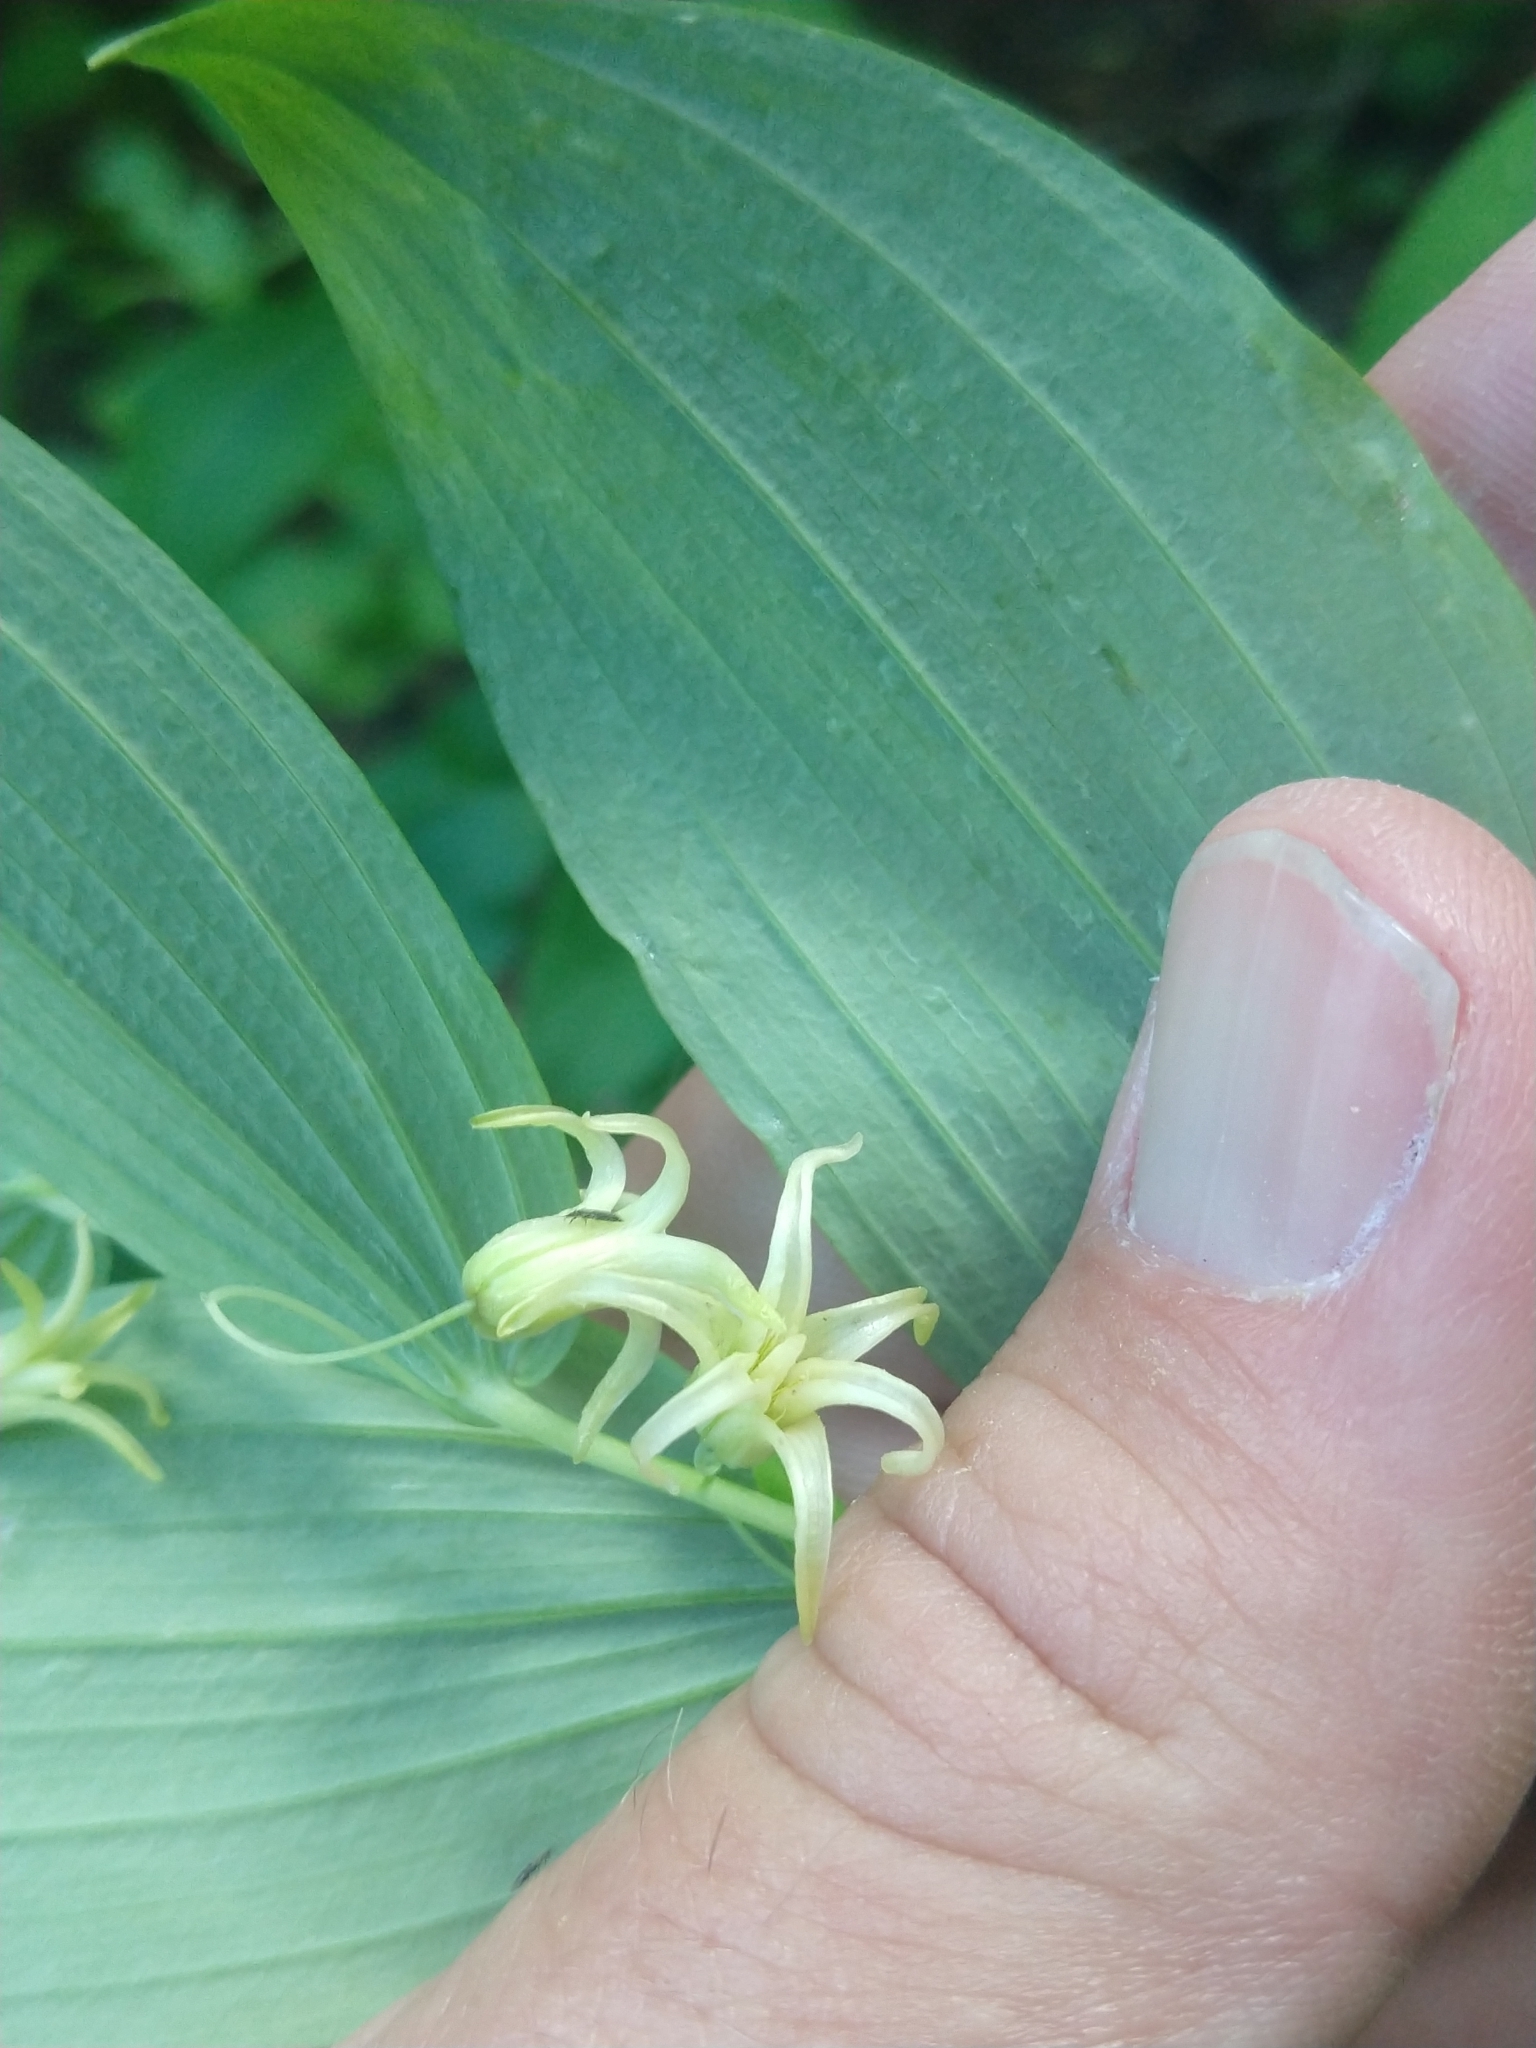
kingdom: Plantae
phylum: Tracheophyta
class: Liliopsida
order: Liliales
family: Liliaceae
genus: Streptopus
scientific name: Streptopus amplexifolius
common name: Clasp twisted stalk
